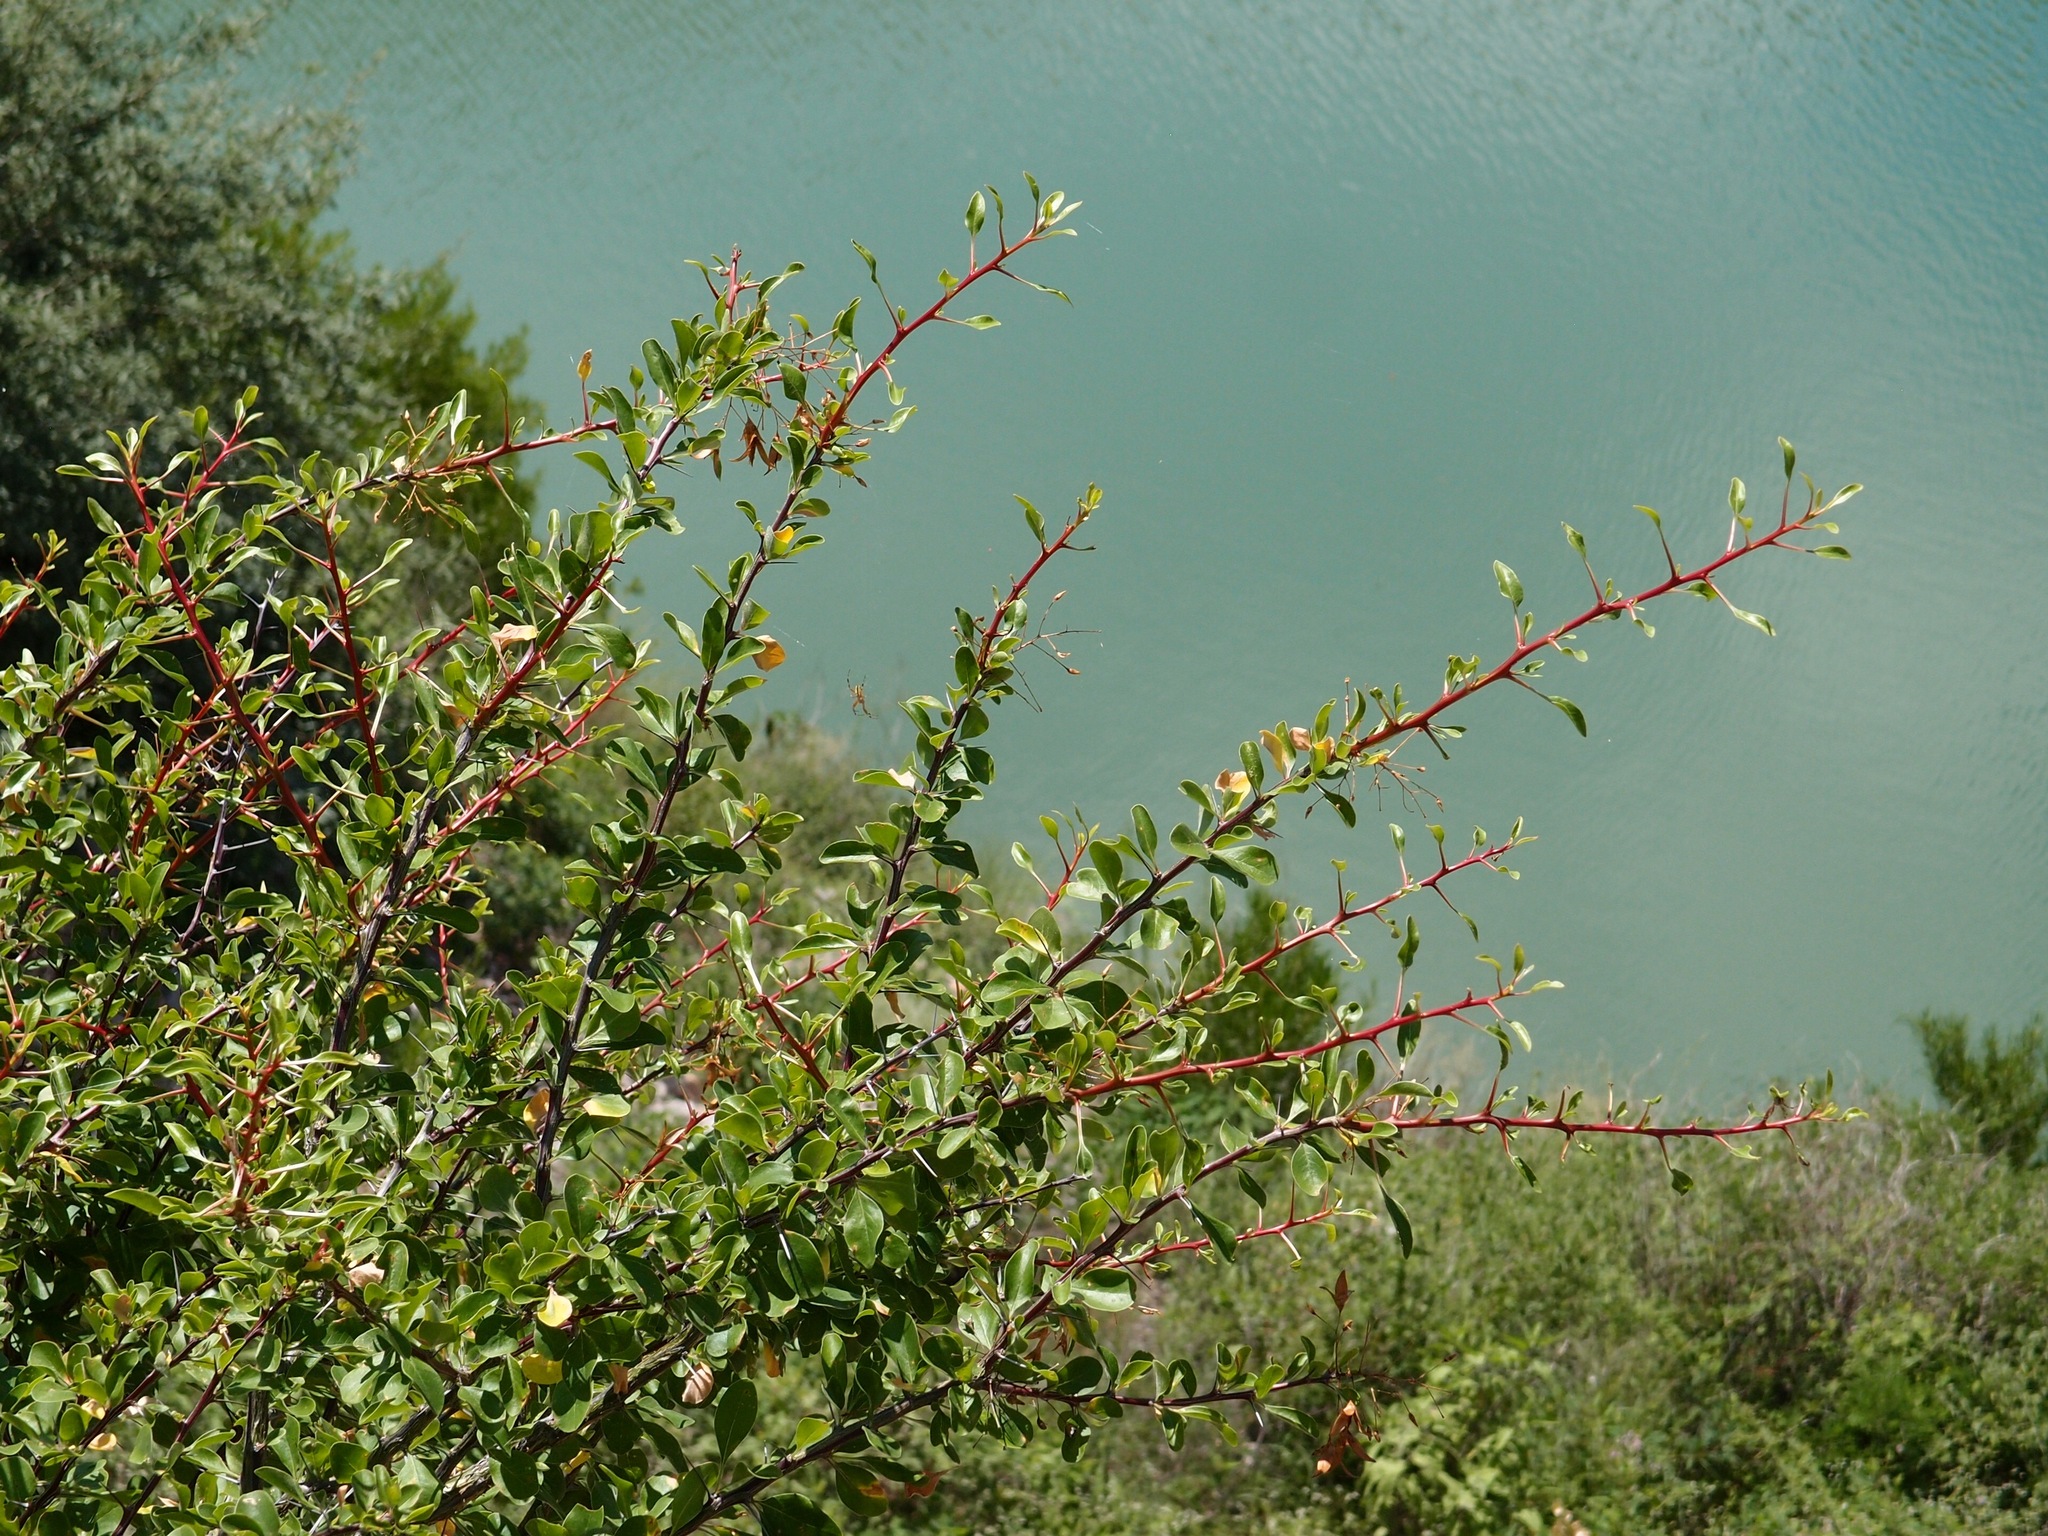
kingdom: Plantae
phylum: Tracheophyta
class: Magnoliopsida
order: Ericales
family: Fouquieriaceae
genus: Fouquieria
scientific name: Fouquieria macdougalii
